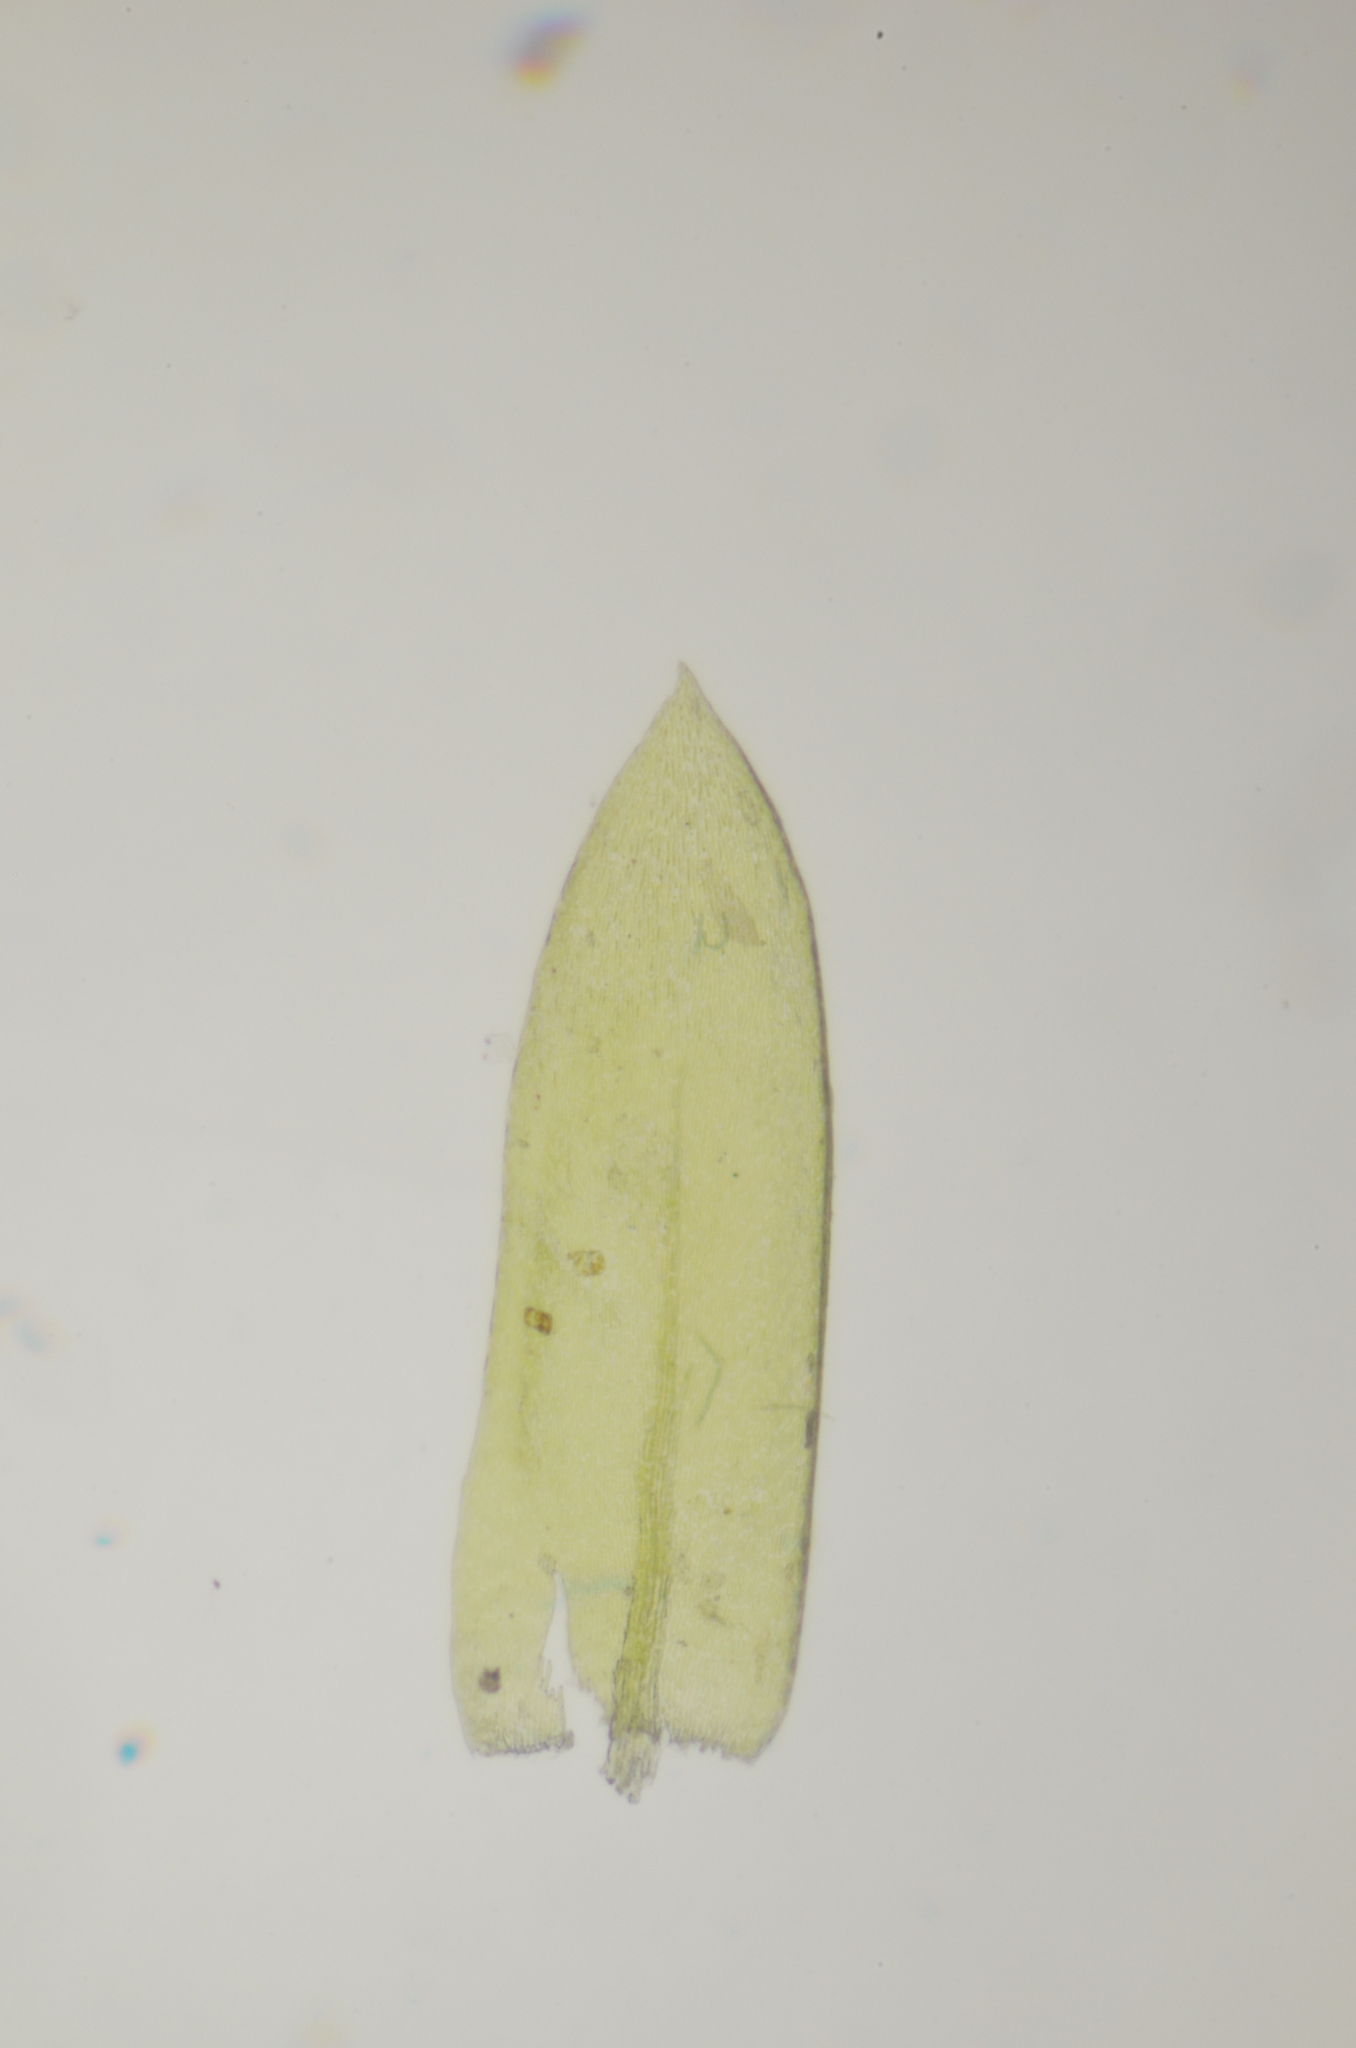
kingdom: Plantae
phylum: Bryophyta
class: Bryopsida
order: Hypnales
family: Brachytheciaceae
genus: Scleropodium
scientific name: Scleropodium obtusifolium
